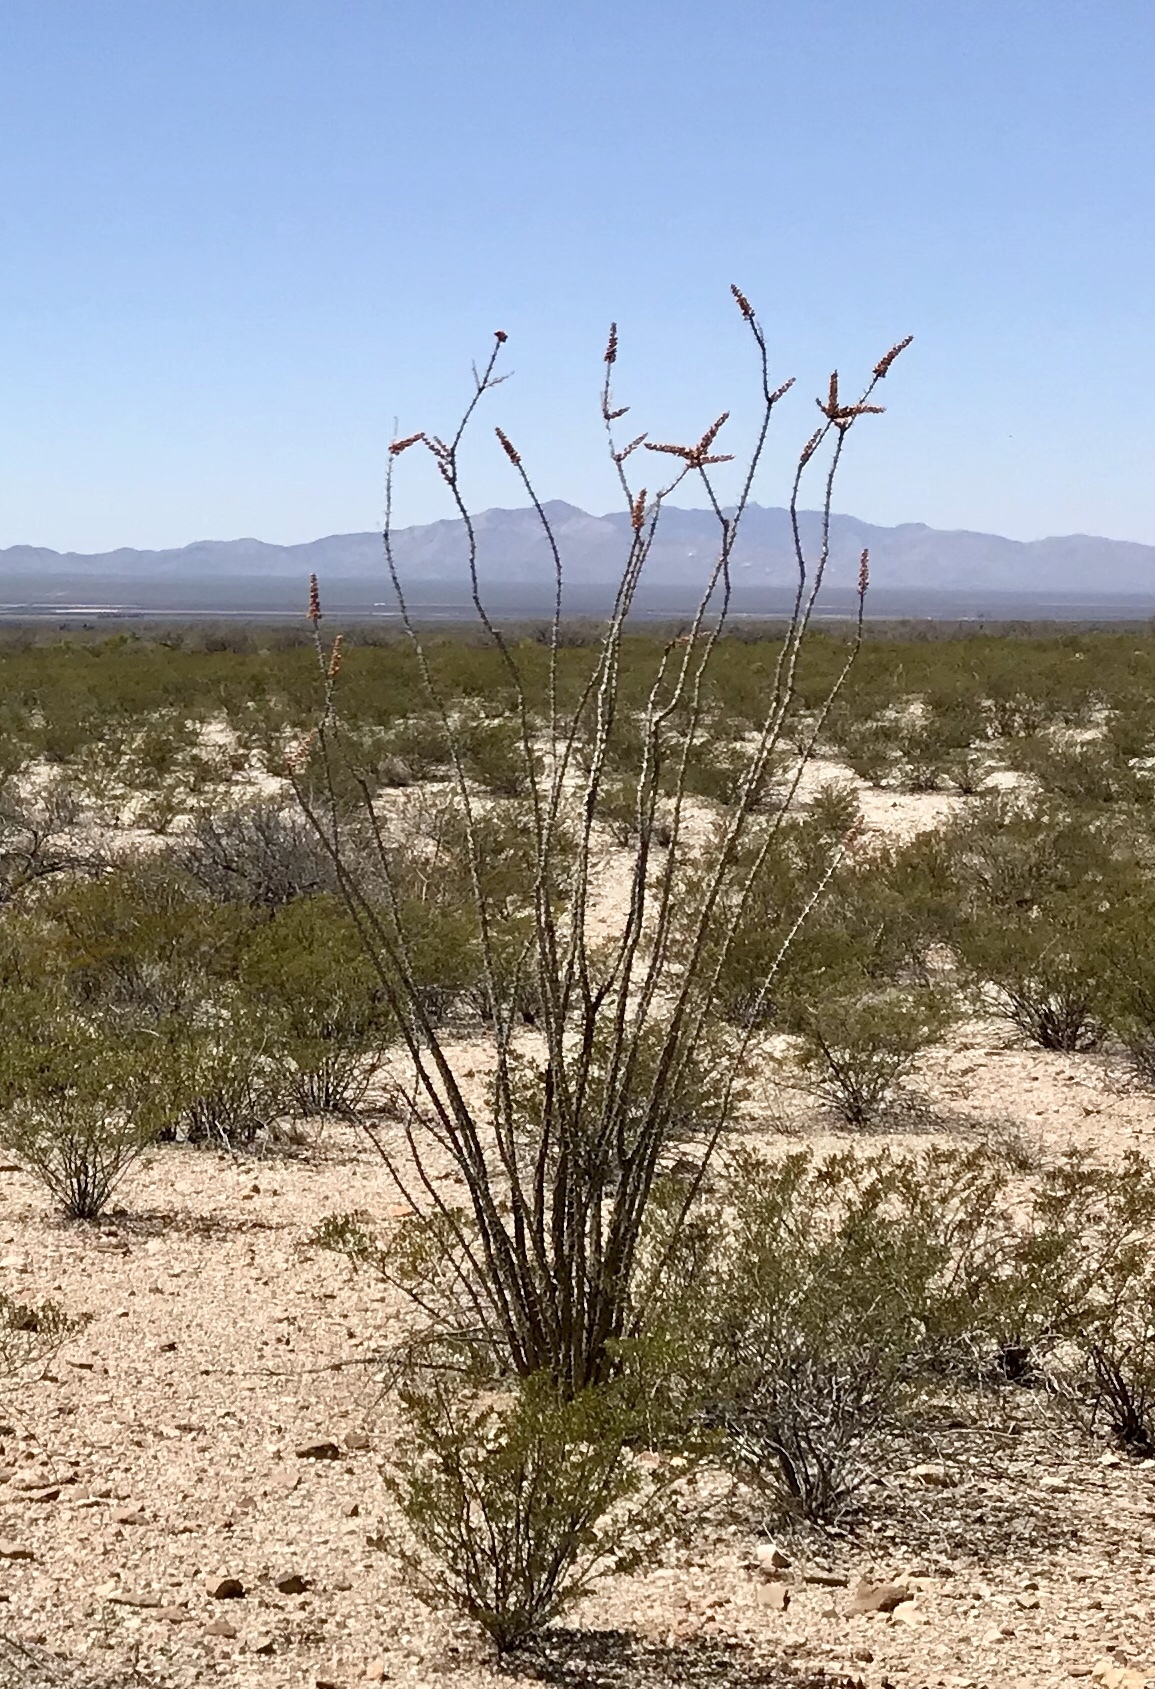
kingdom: Plantae
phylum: Tracheophyta
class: Magnoliopsida
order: Ericales
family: Fouquieriaceae
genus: Fouquieria
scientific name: Fouquieria splendens
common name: Vine-cactus
